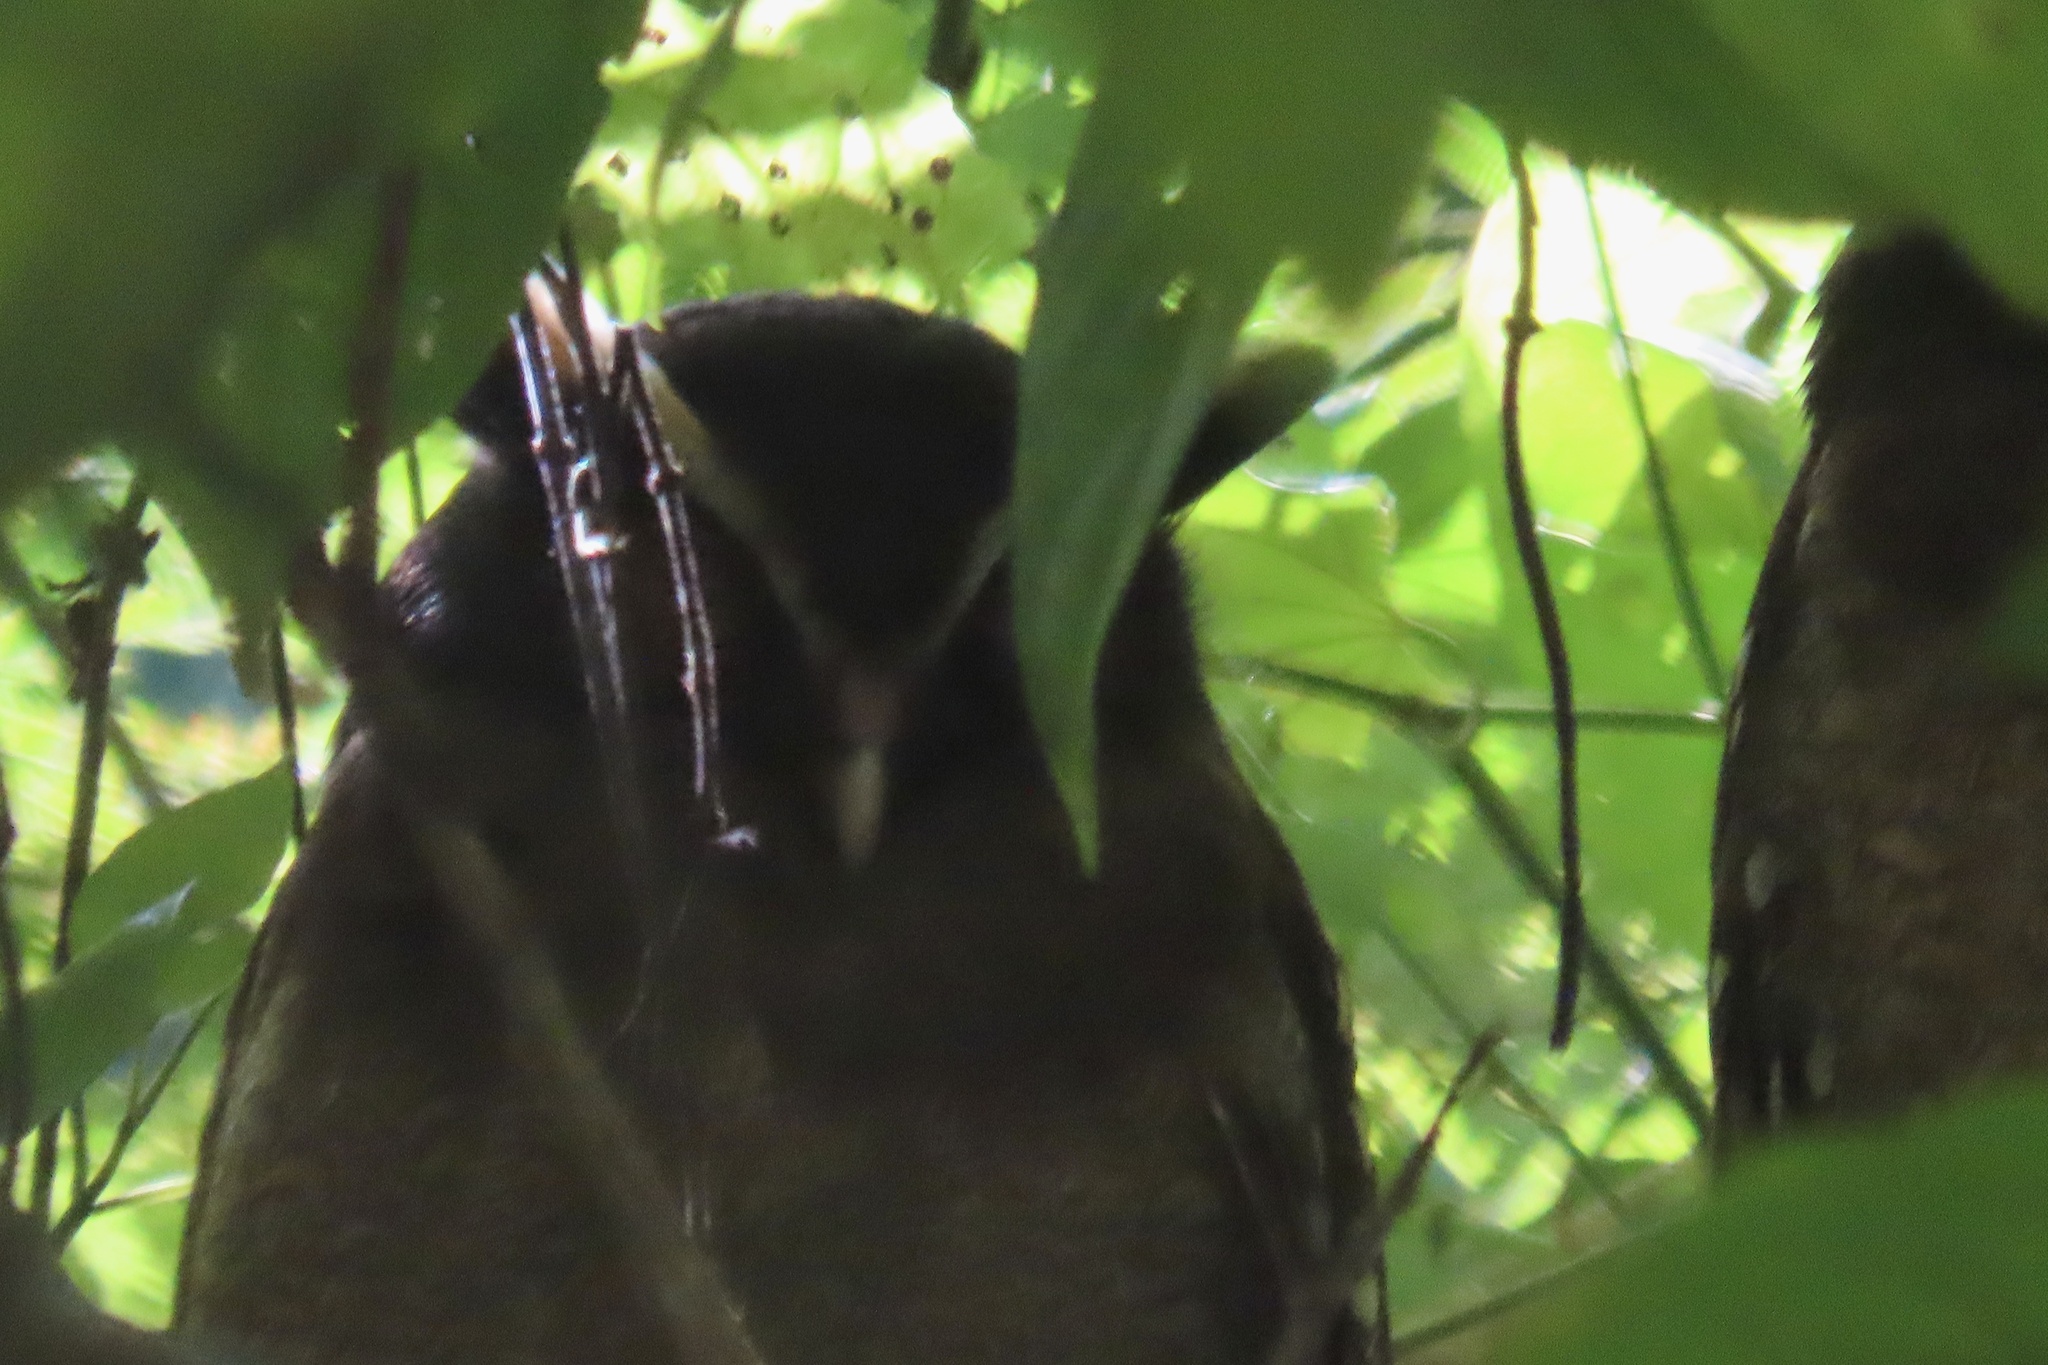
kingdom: Animalia
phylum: Chordata
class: Aves
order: Strigiformes
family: Strigidae
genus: Lophostrix
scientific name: Lophostrix cristata
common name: Crested owl
